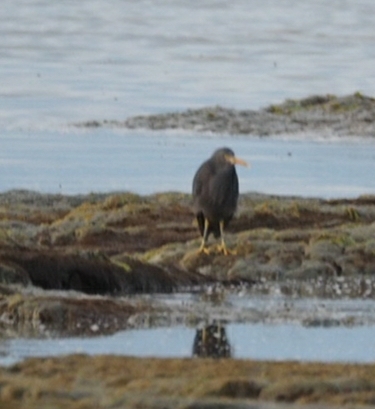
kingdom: Animalia
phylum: Chordata
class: Aves
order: Pelecaniformes
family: Ardeidae
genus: Egretta
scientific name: Egretta sacra
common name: Pacific reef heron
